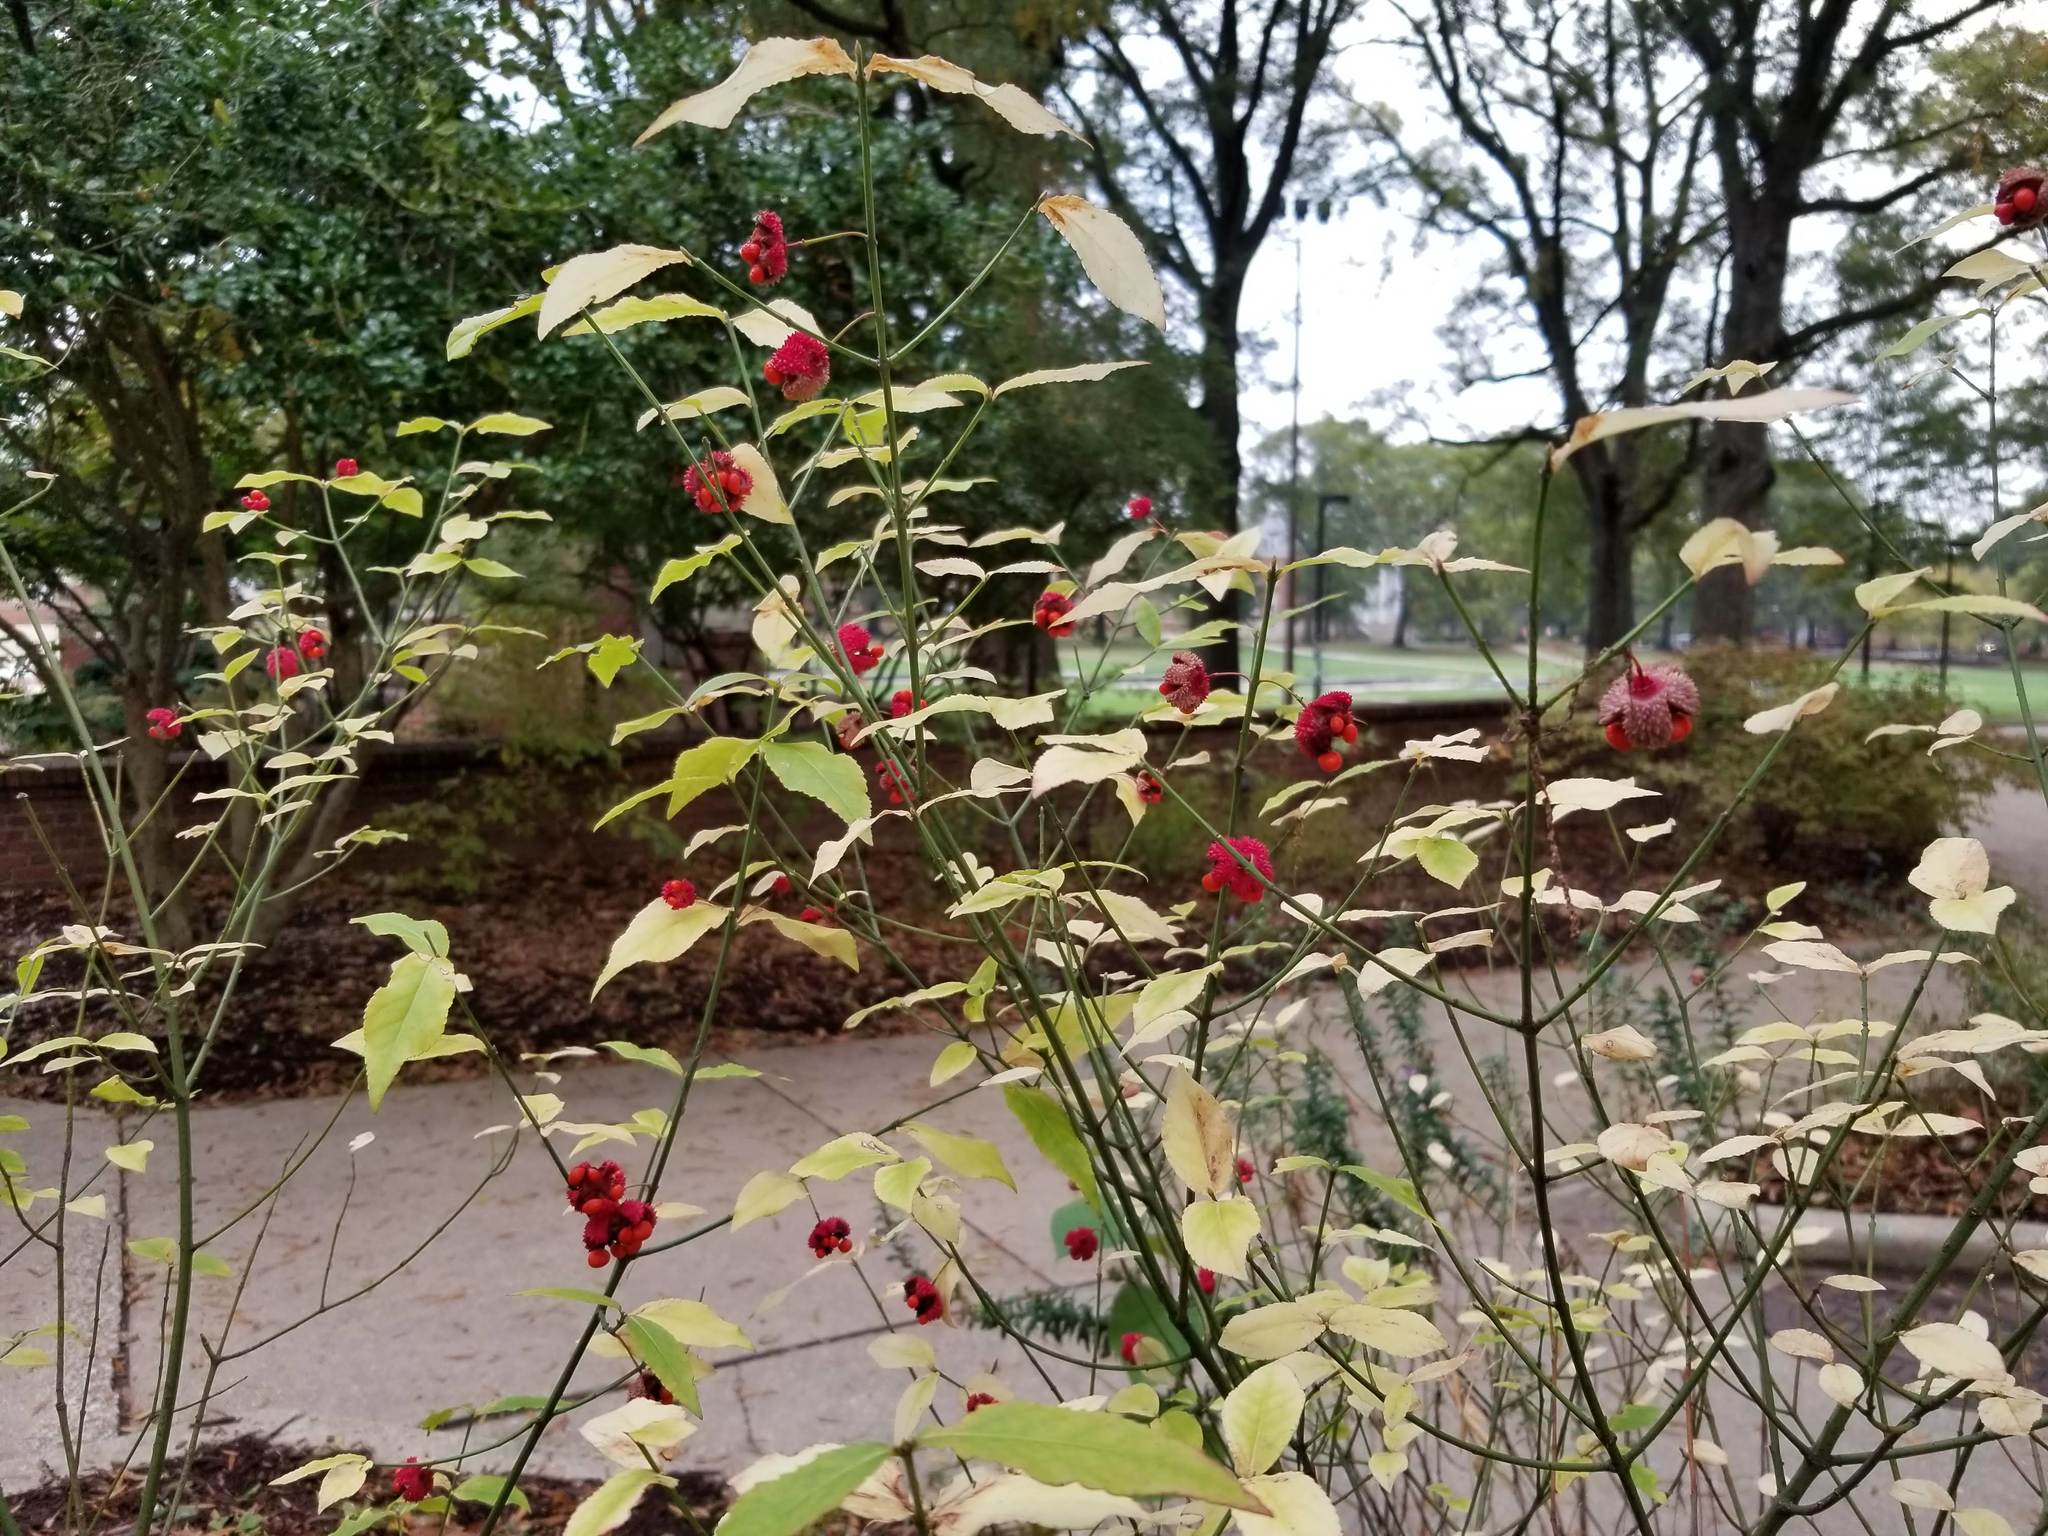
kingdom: Plantae
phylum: Tracheophyta
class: Magnoliopsida
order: Celastrales
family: Celastraceae
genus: Euonymus
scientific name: Euonymus americanus
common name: Bursting-heart
